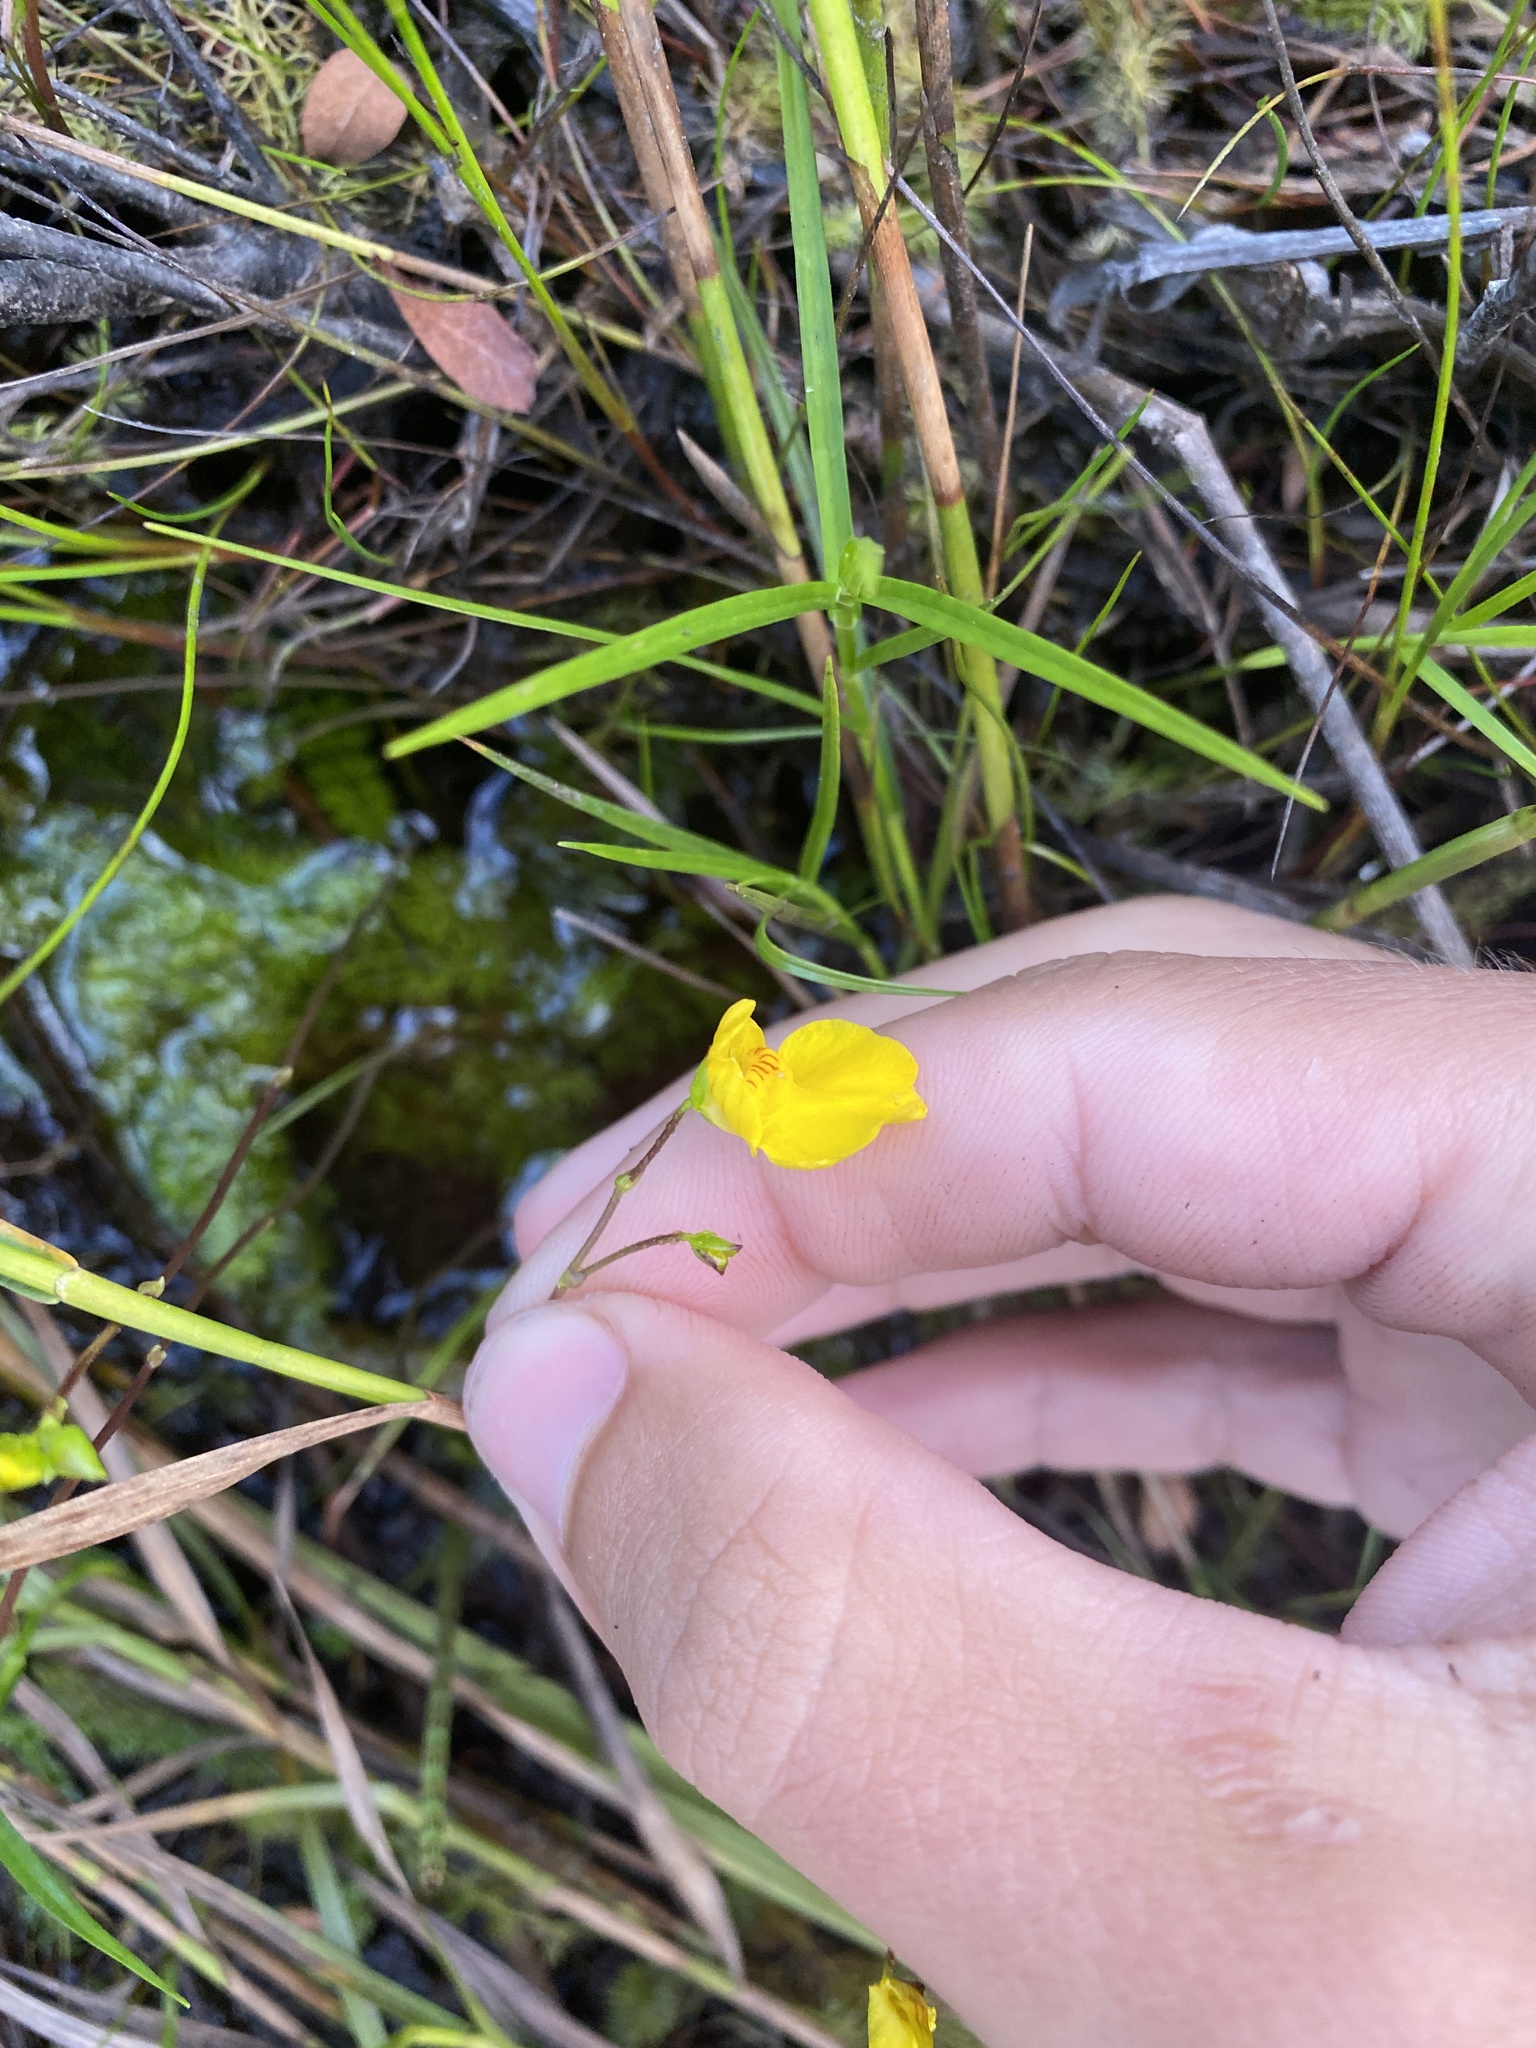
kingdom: Plantae
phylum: Tracheophyta
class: Magnoliopsida
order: Lamiales
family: Lentibulariaceae
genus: Utricularia
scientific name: Utricularia intermedia
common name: Intermediate bladderwort
